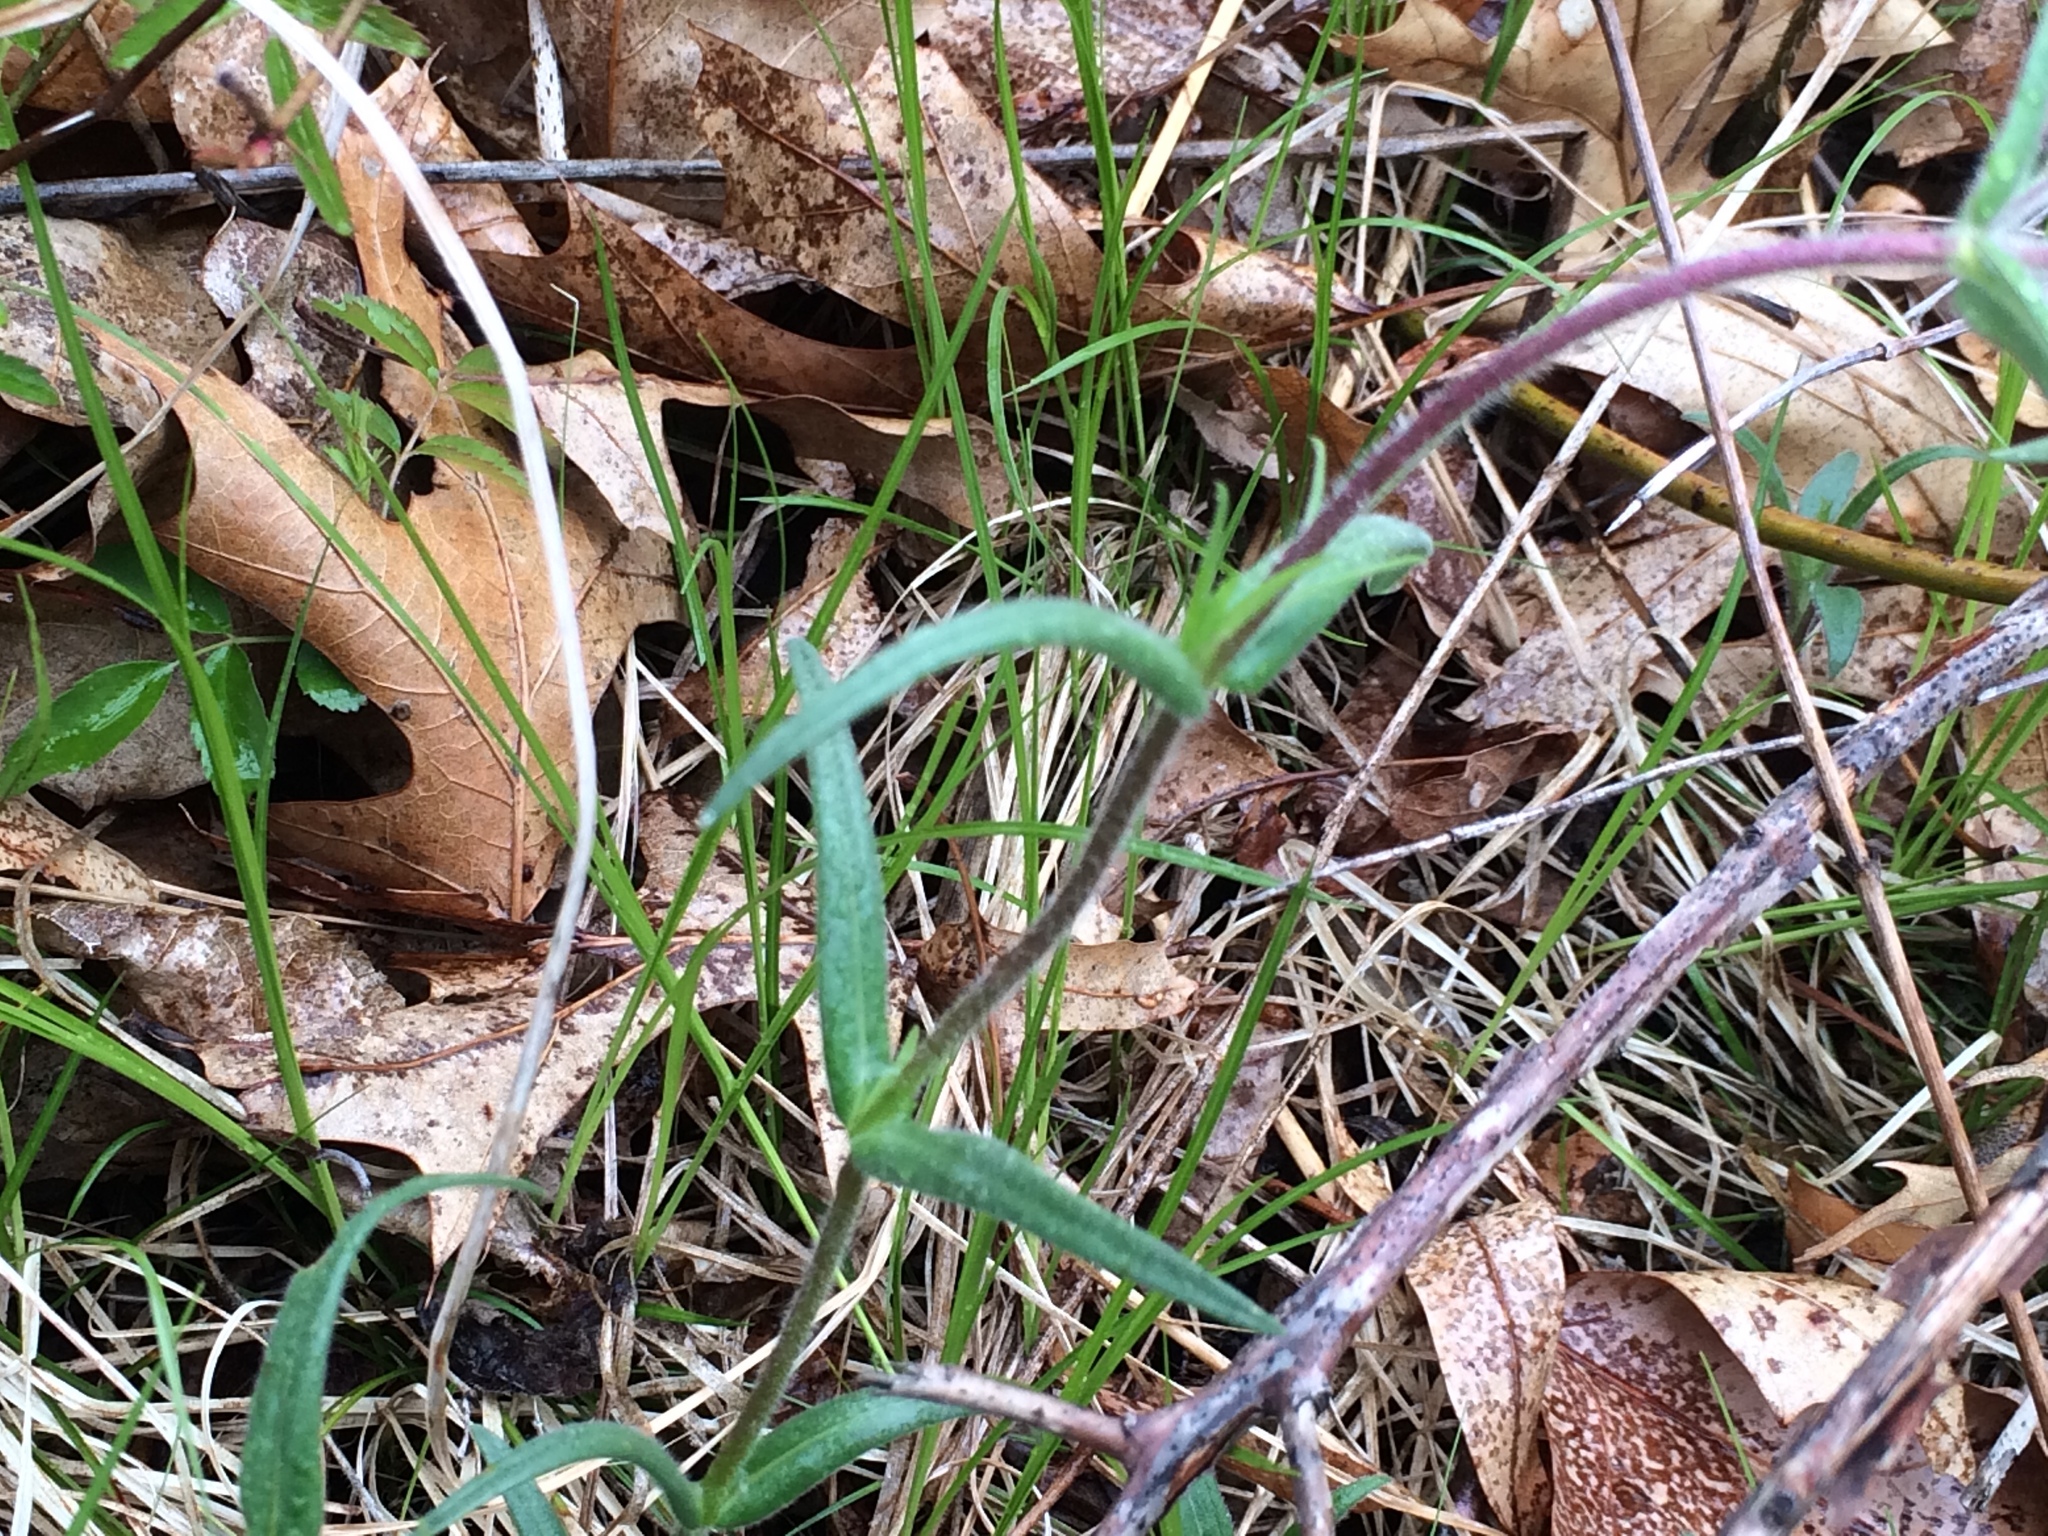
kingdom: Plantae
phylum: Tracheophyta
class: Magnoliopsida
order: Ericales
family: Polemoniaceae
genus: Phlox
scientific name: Phlox pilosa
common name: Prairie phlox
